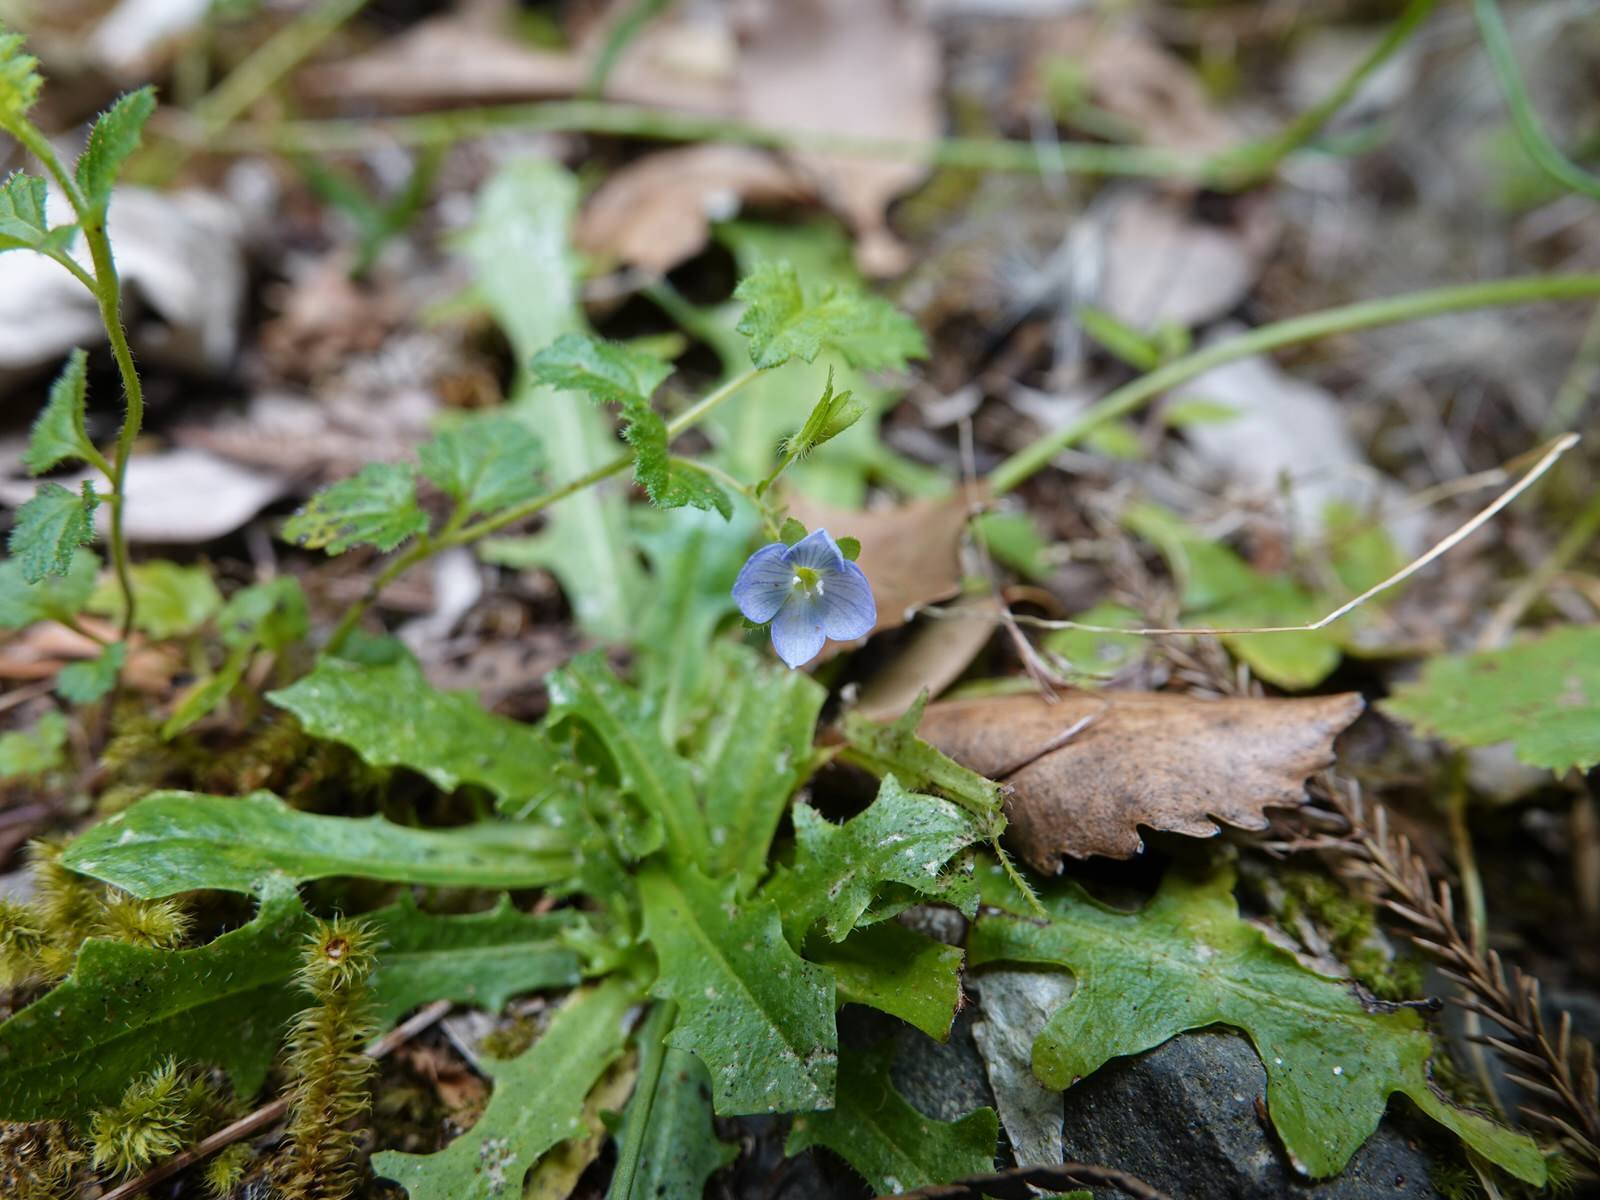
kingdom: Plantae
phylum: Tracheophyta
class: Magnoliopsida
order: Lamiales
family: Plantaginaceae
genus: Veronica
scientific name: Veronica calycina
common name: Cup speedwell
